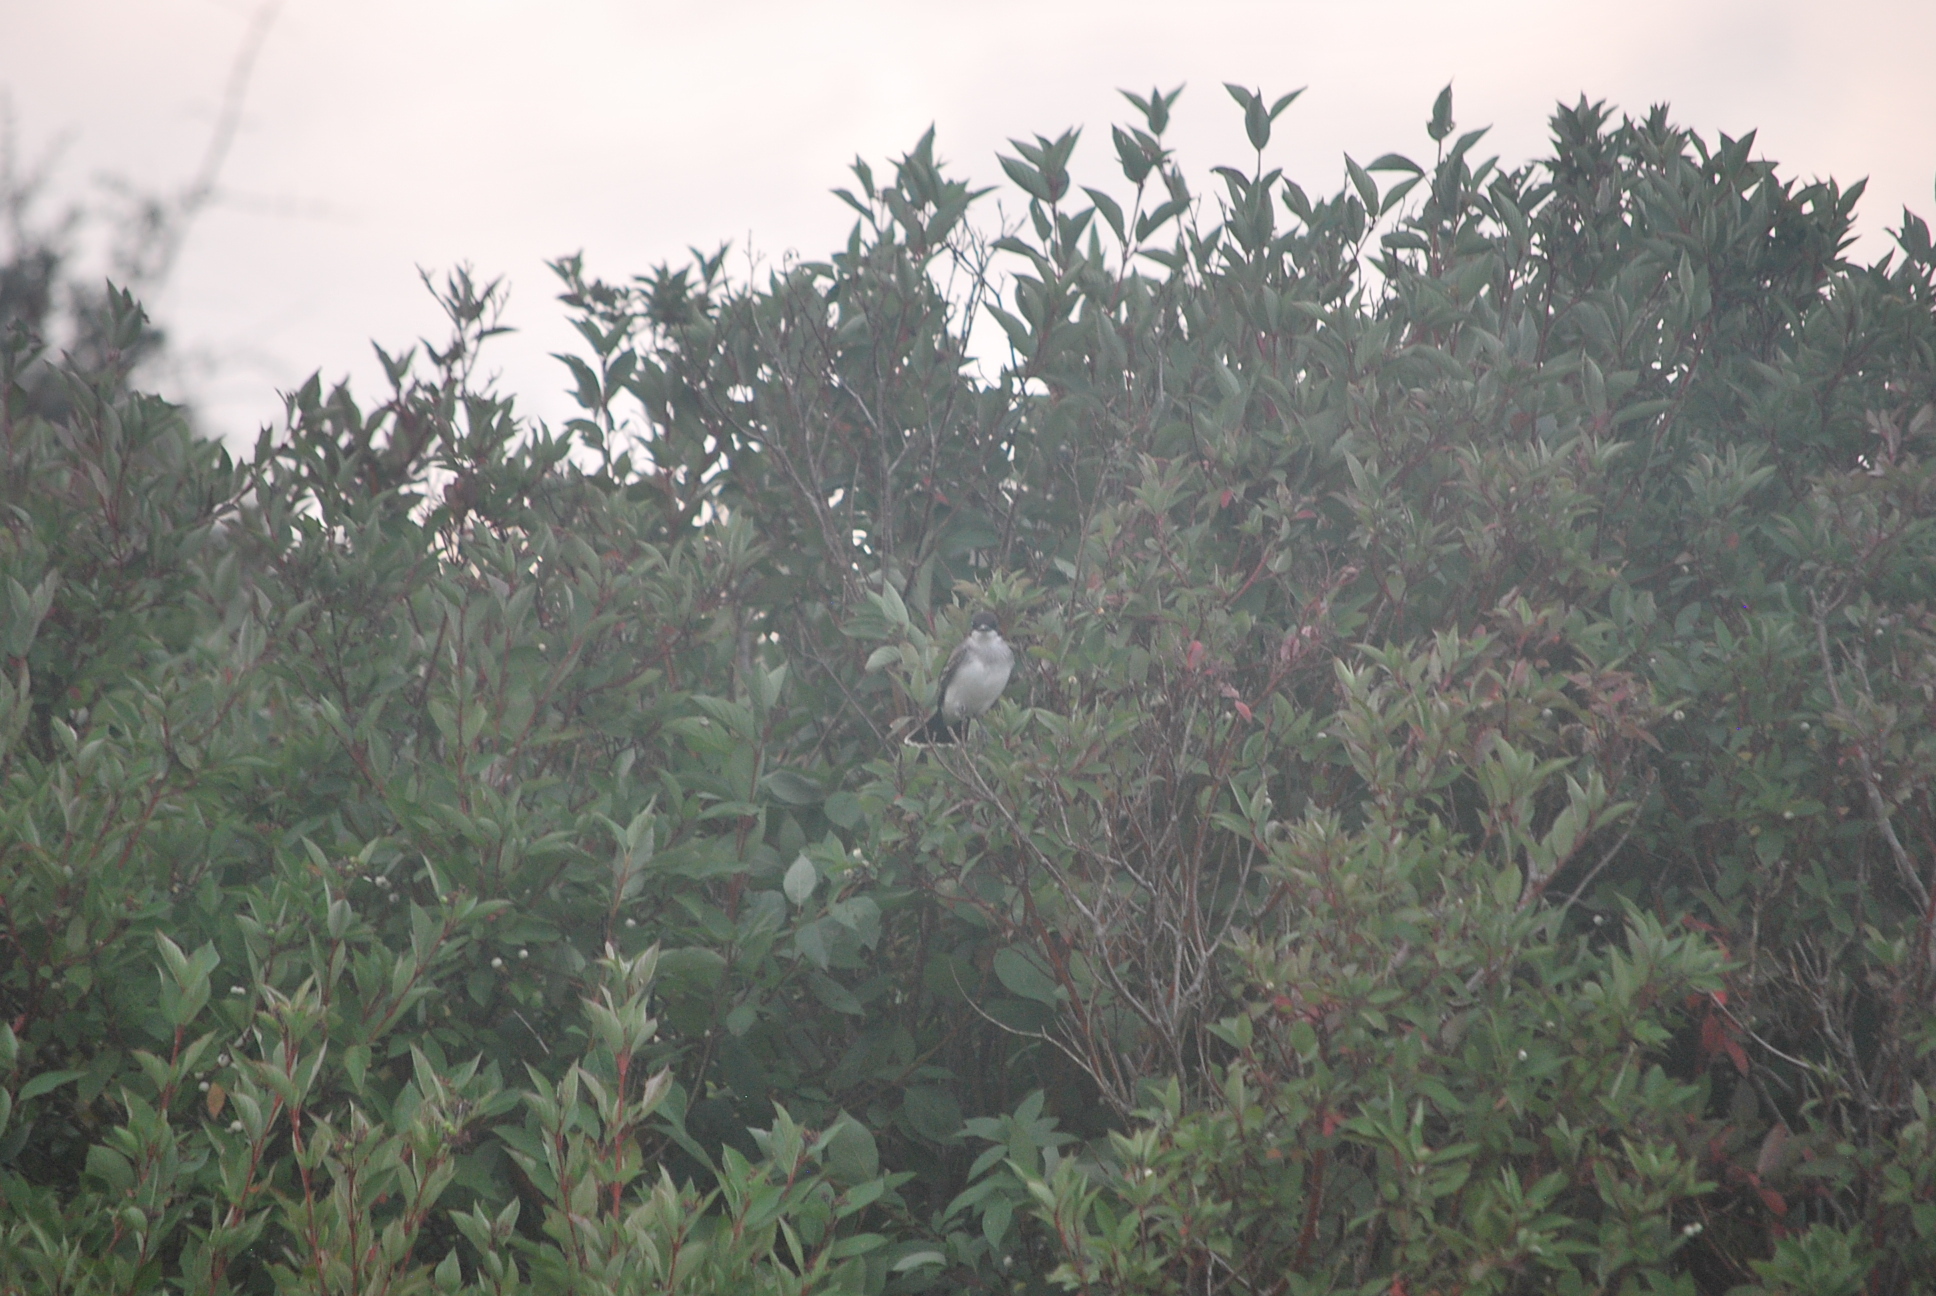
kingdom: Animalia
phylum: Chordata
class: Aves
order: Passeriformes
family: Tyrannidae
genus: Tyrannus
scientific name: Tyrannus tyrannus
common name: Eastern kingbird
